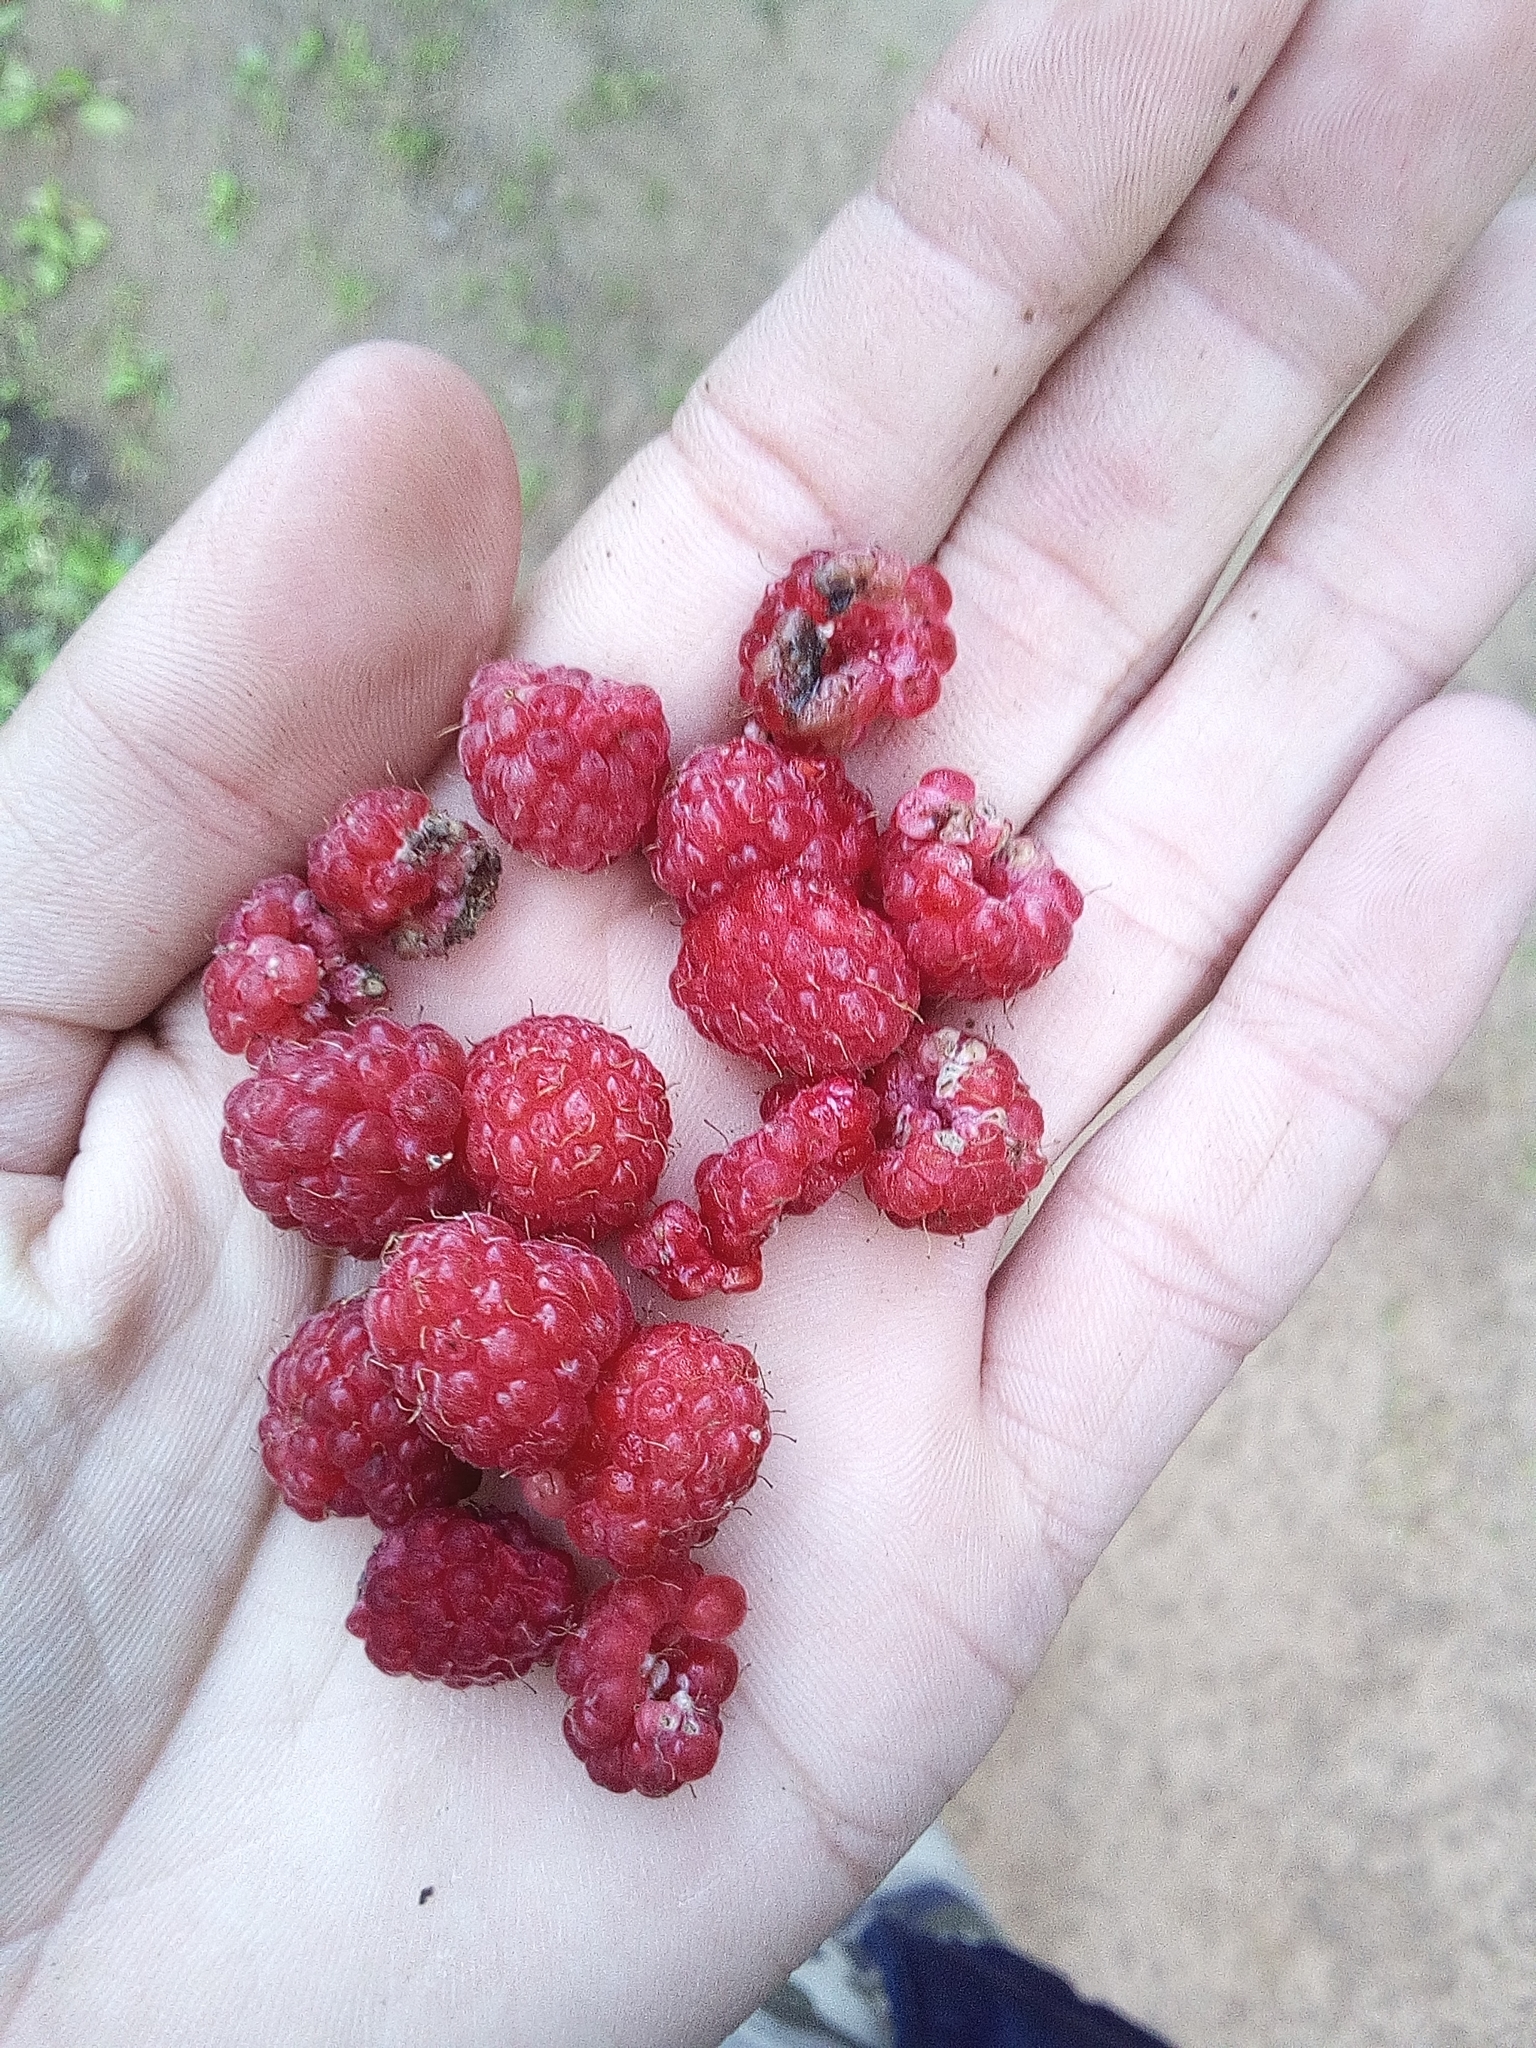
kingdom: Plantae
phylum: Tracheophyta
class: Magnoliopsida
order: Rosales
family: Rosaceae
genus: Rubus
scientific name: Rubus idaeus
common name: Raspberry
